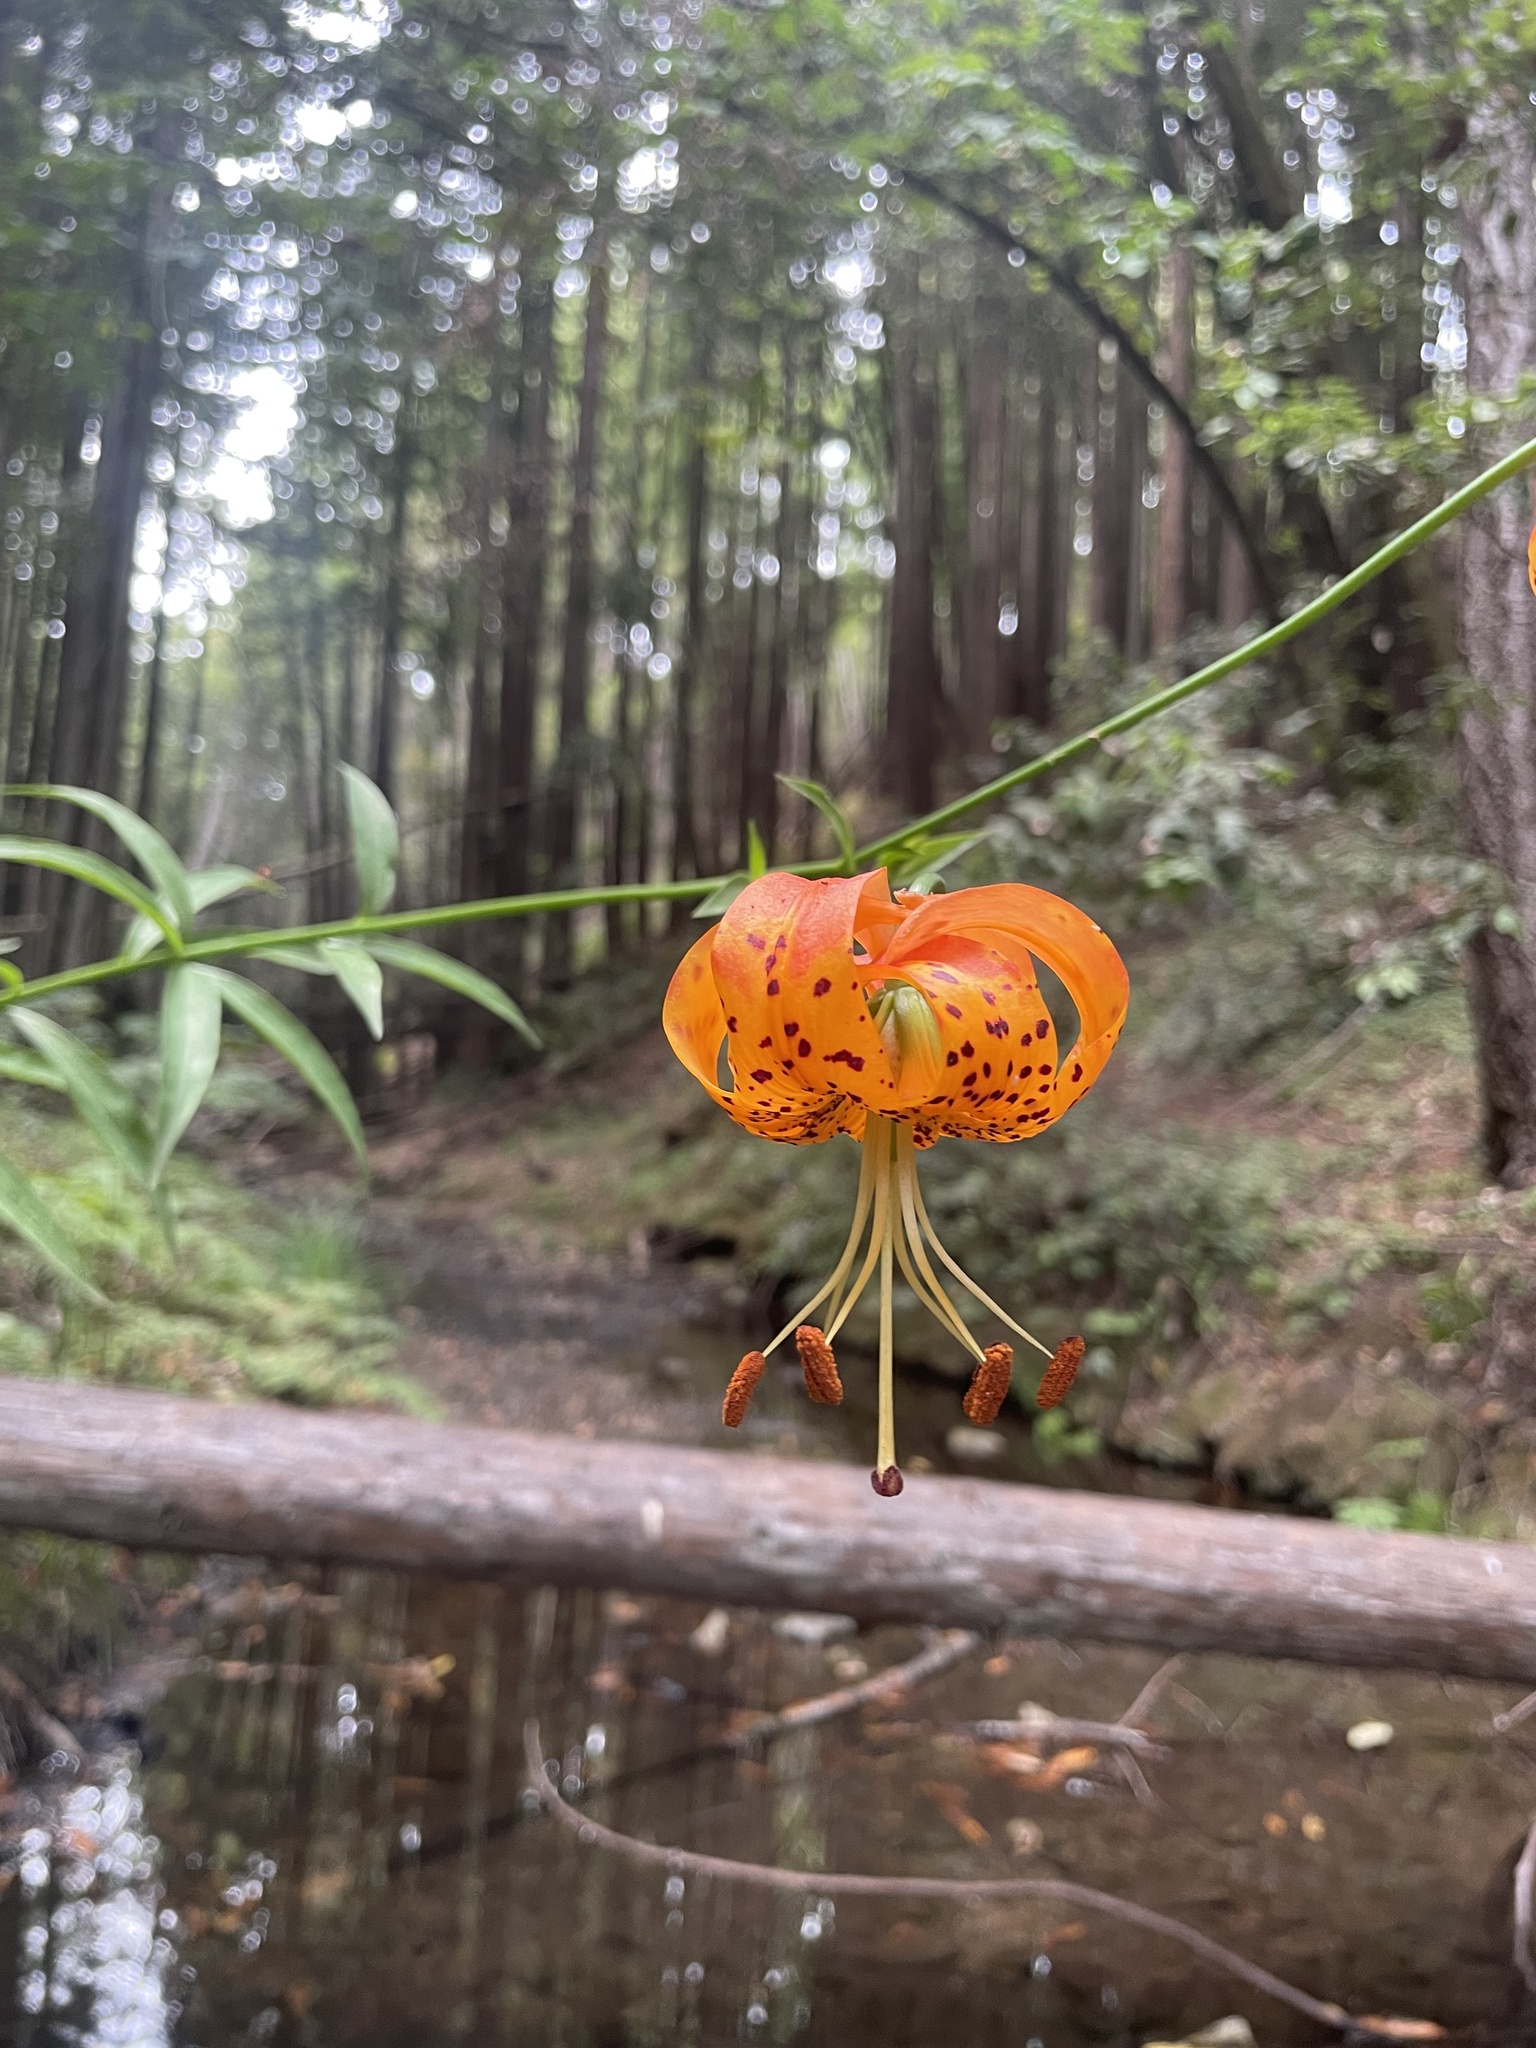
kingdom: Plantae
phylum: Tracheophyta
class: Liliopsida
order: Liliales
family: Liliaceae
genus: Lilium
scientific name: Lilium pardalinum
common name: Panther lily
